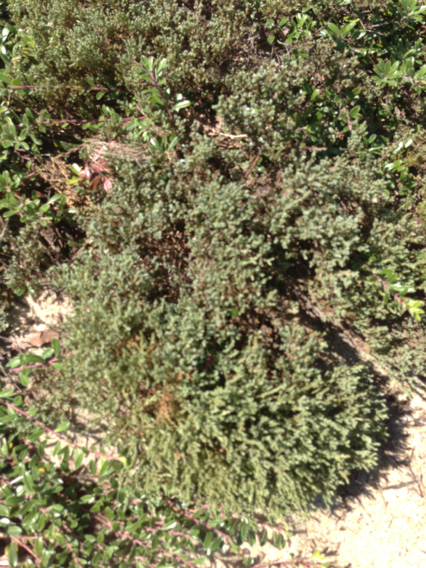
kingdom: Plantae
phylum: Tracheophyta
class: Magnoliopsida
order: Malvales
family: Cistaceae
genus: Hudsonia
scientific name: Hudsonia tomentosa
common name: Beach-heath
